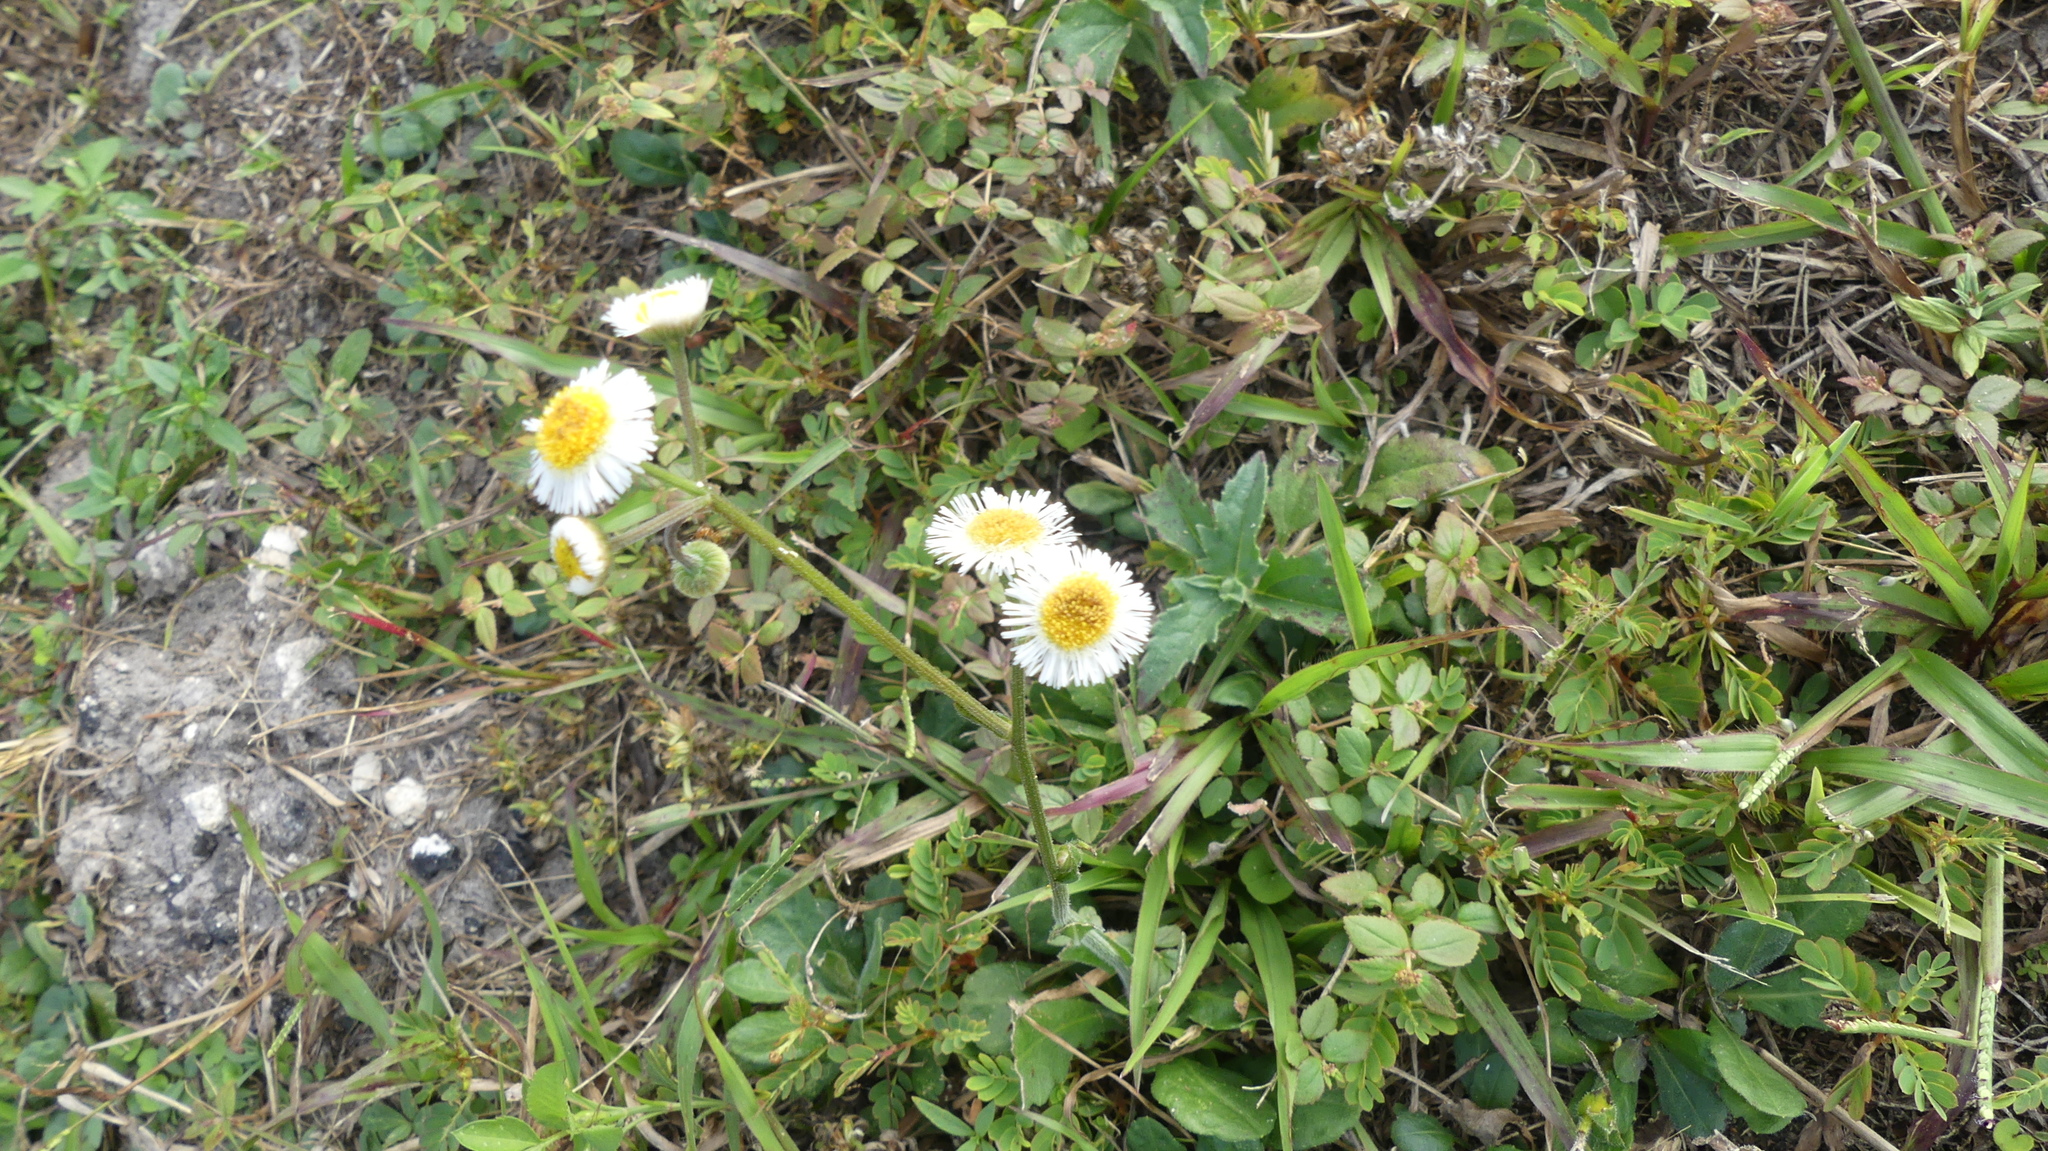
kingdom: Plantae
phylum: Tracheophyta
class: Magnoliopsida
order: Asterales
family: Asteraceae
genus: Erigeron
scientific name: Erigeron quercifolius
